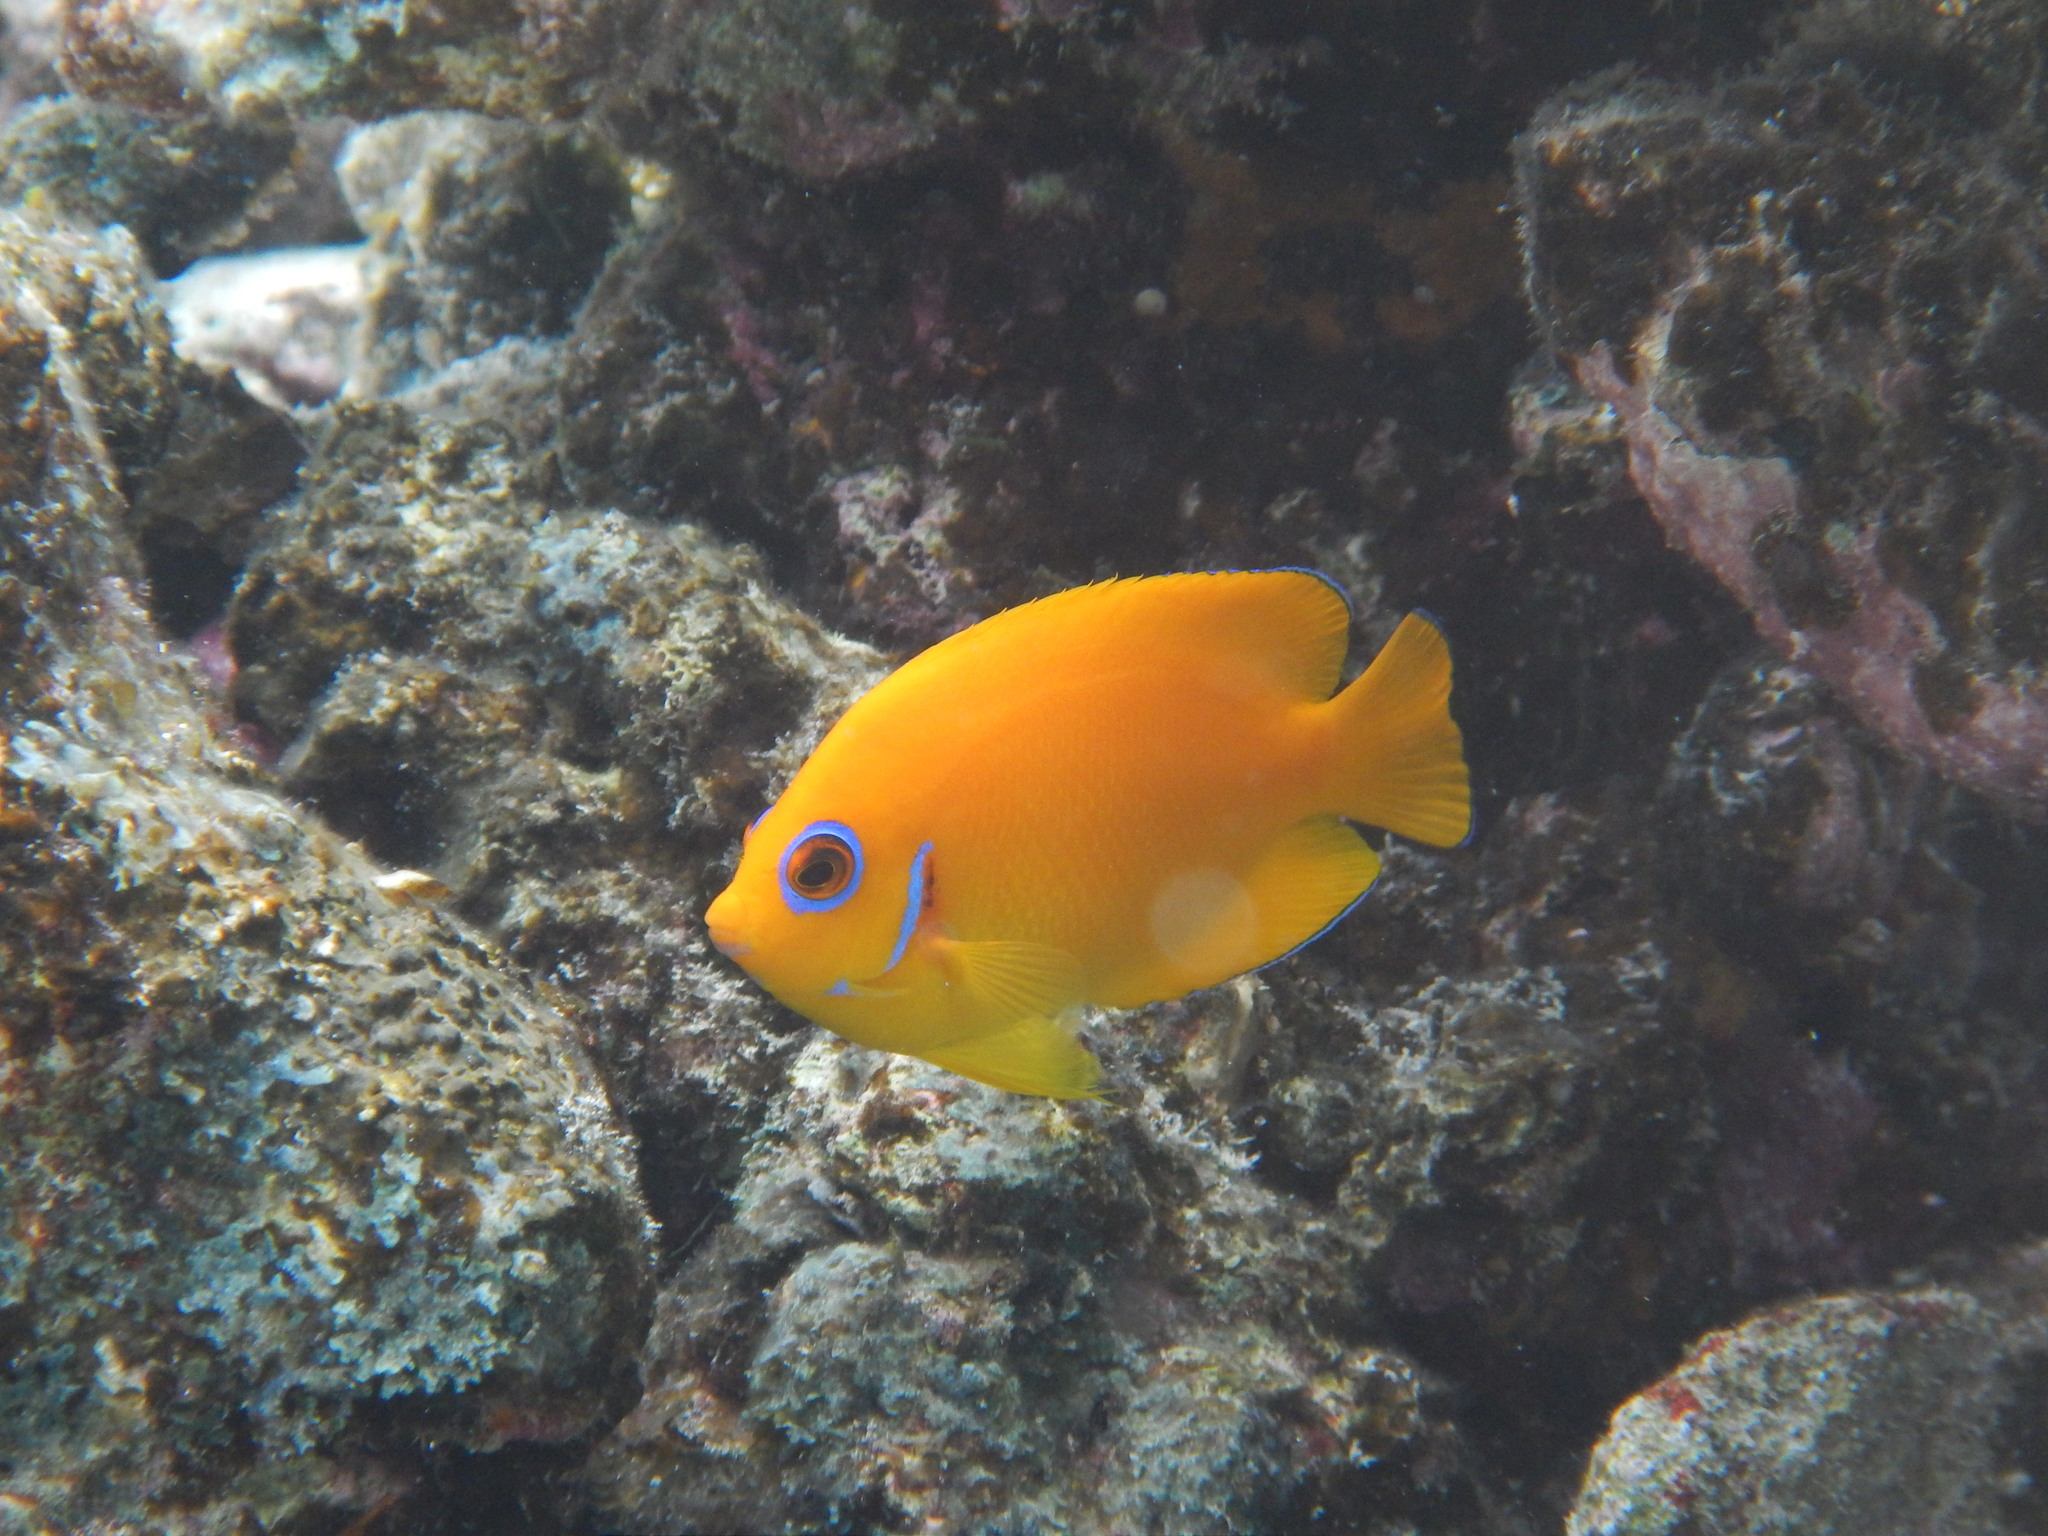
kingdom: Animalia
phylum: Chordata
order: Perciformes
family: Pomacanthidae
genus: Centropyge
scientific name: Centropyge flavissima
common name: Lemonpeel angelfish
